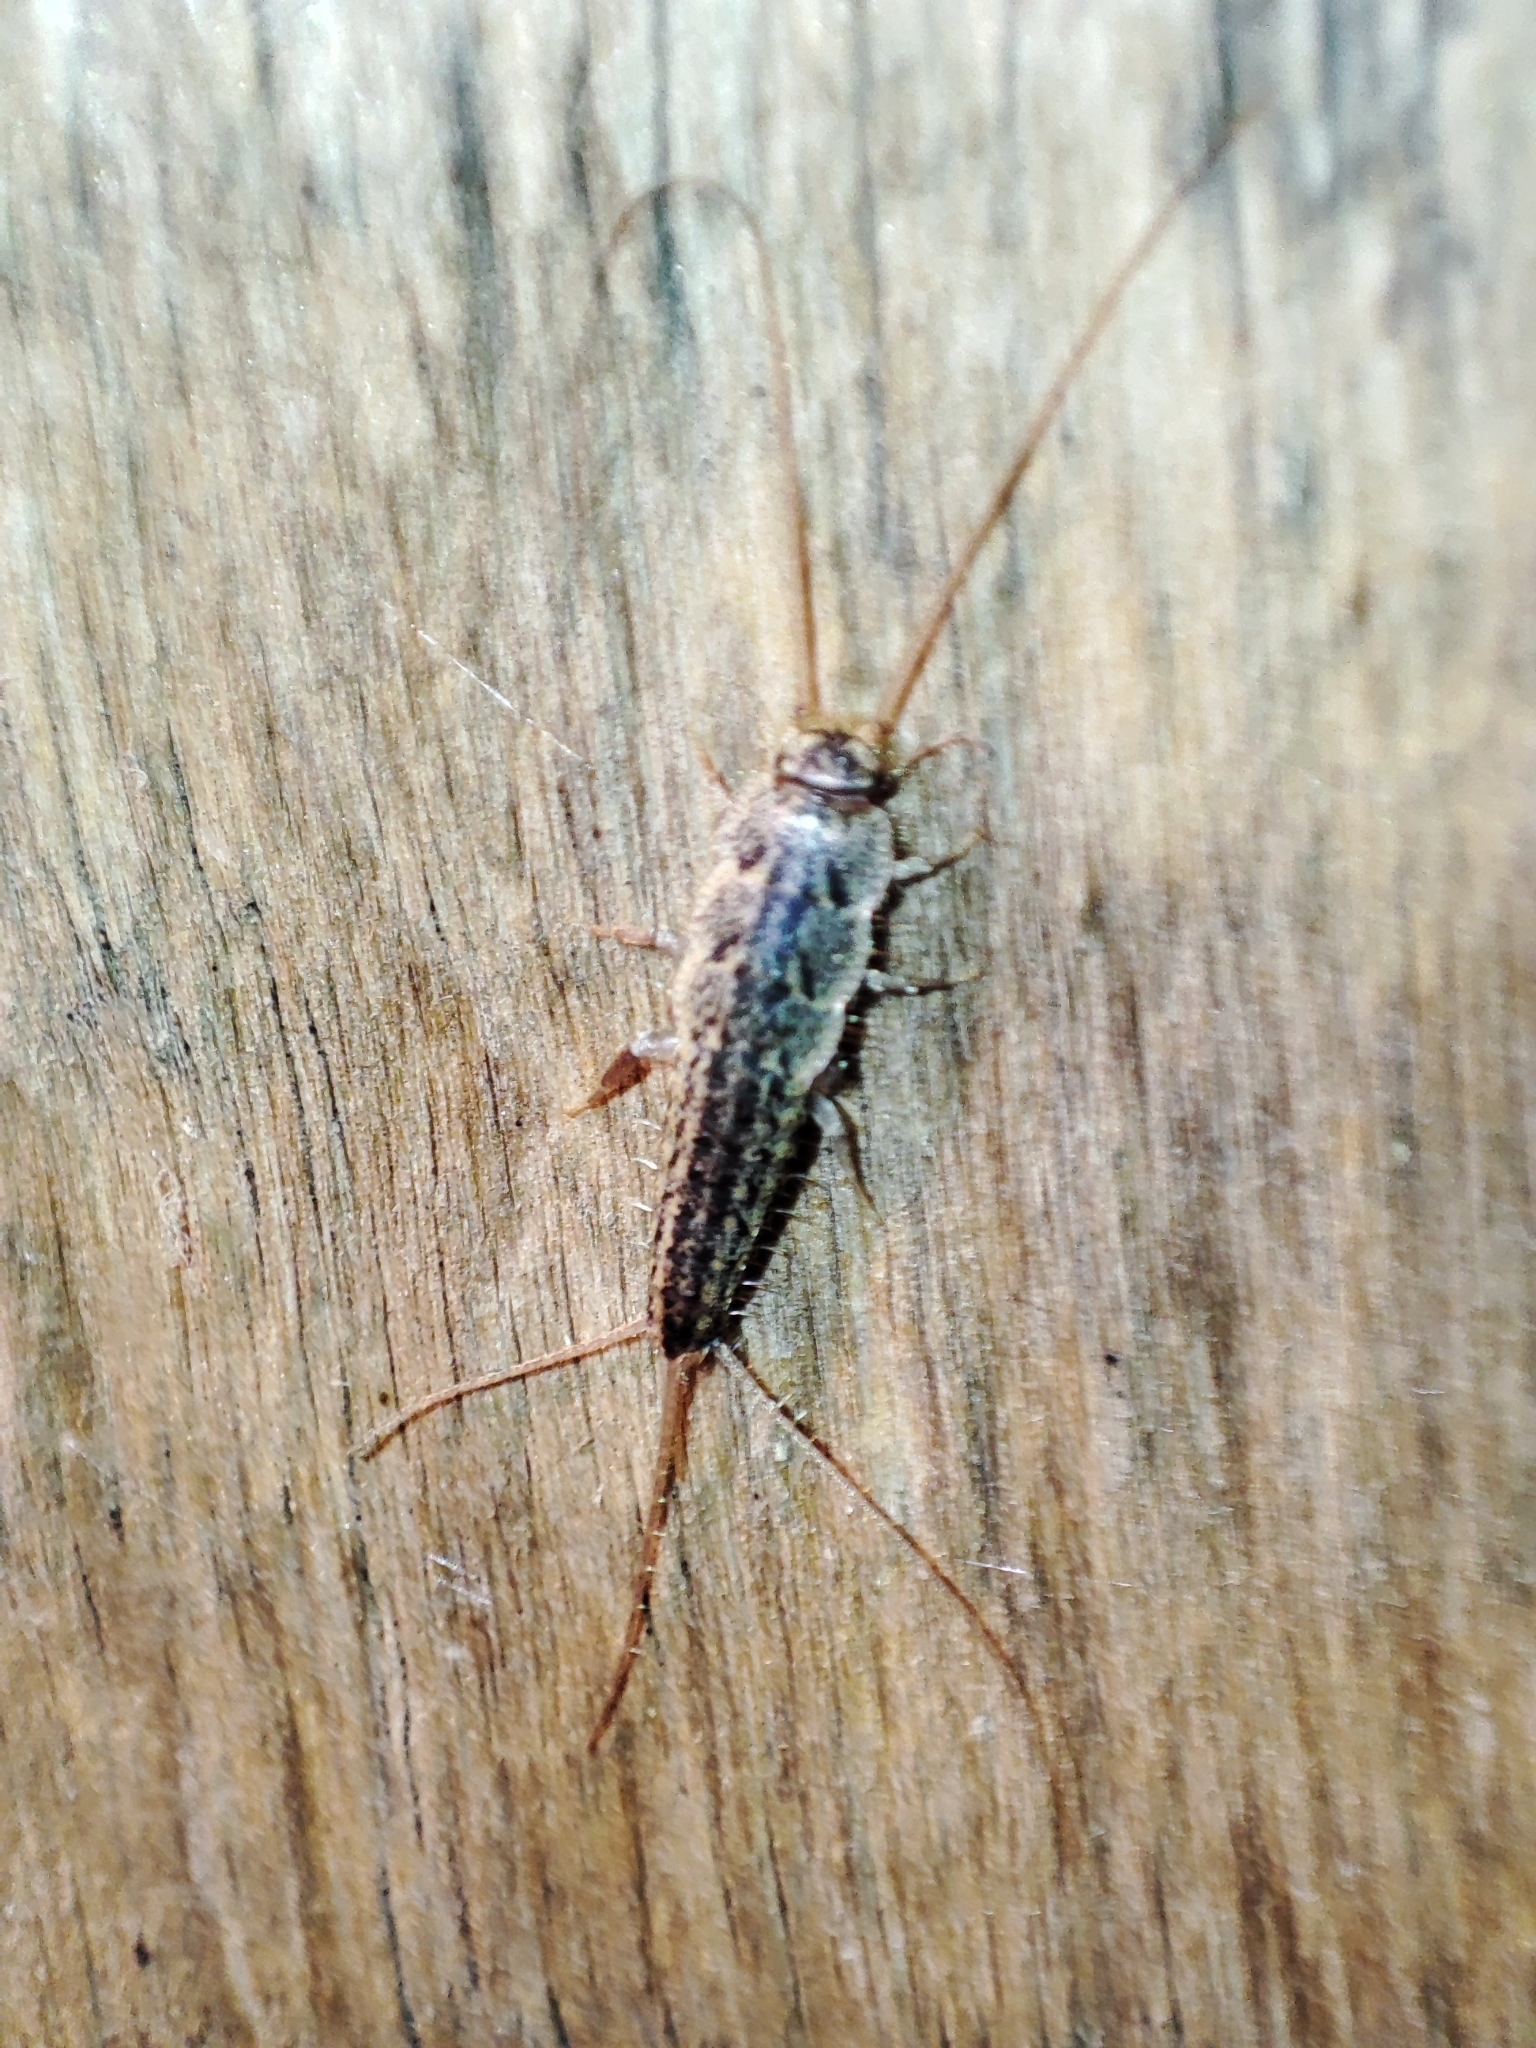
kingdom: Animalia
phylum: Arthropoda
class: Insecta
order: Zygentoma
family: Lepismatidae
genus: Ctenolepisma
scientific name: Ctenolepisma lineata
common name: Four-lined silverfish
